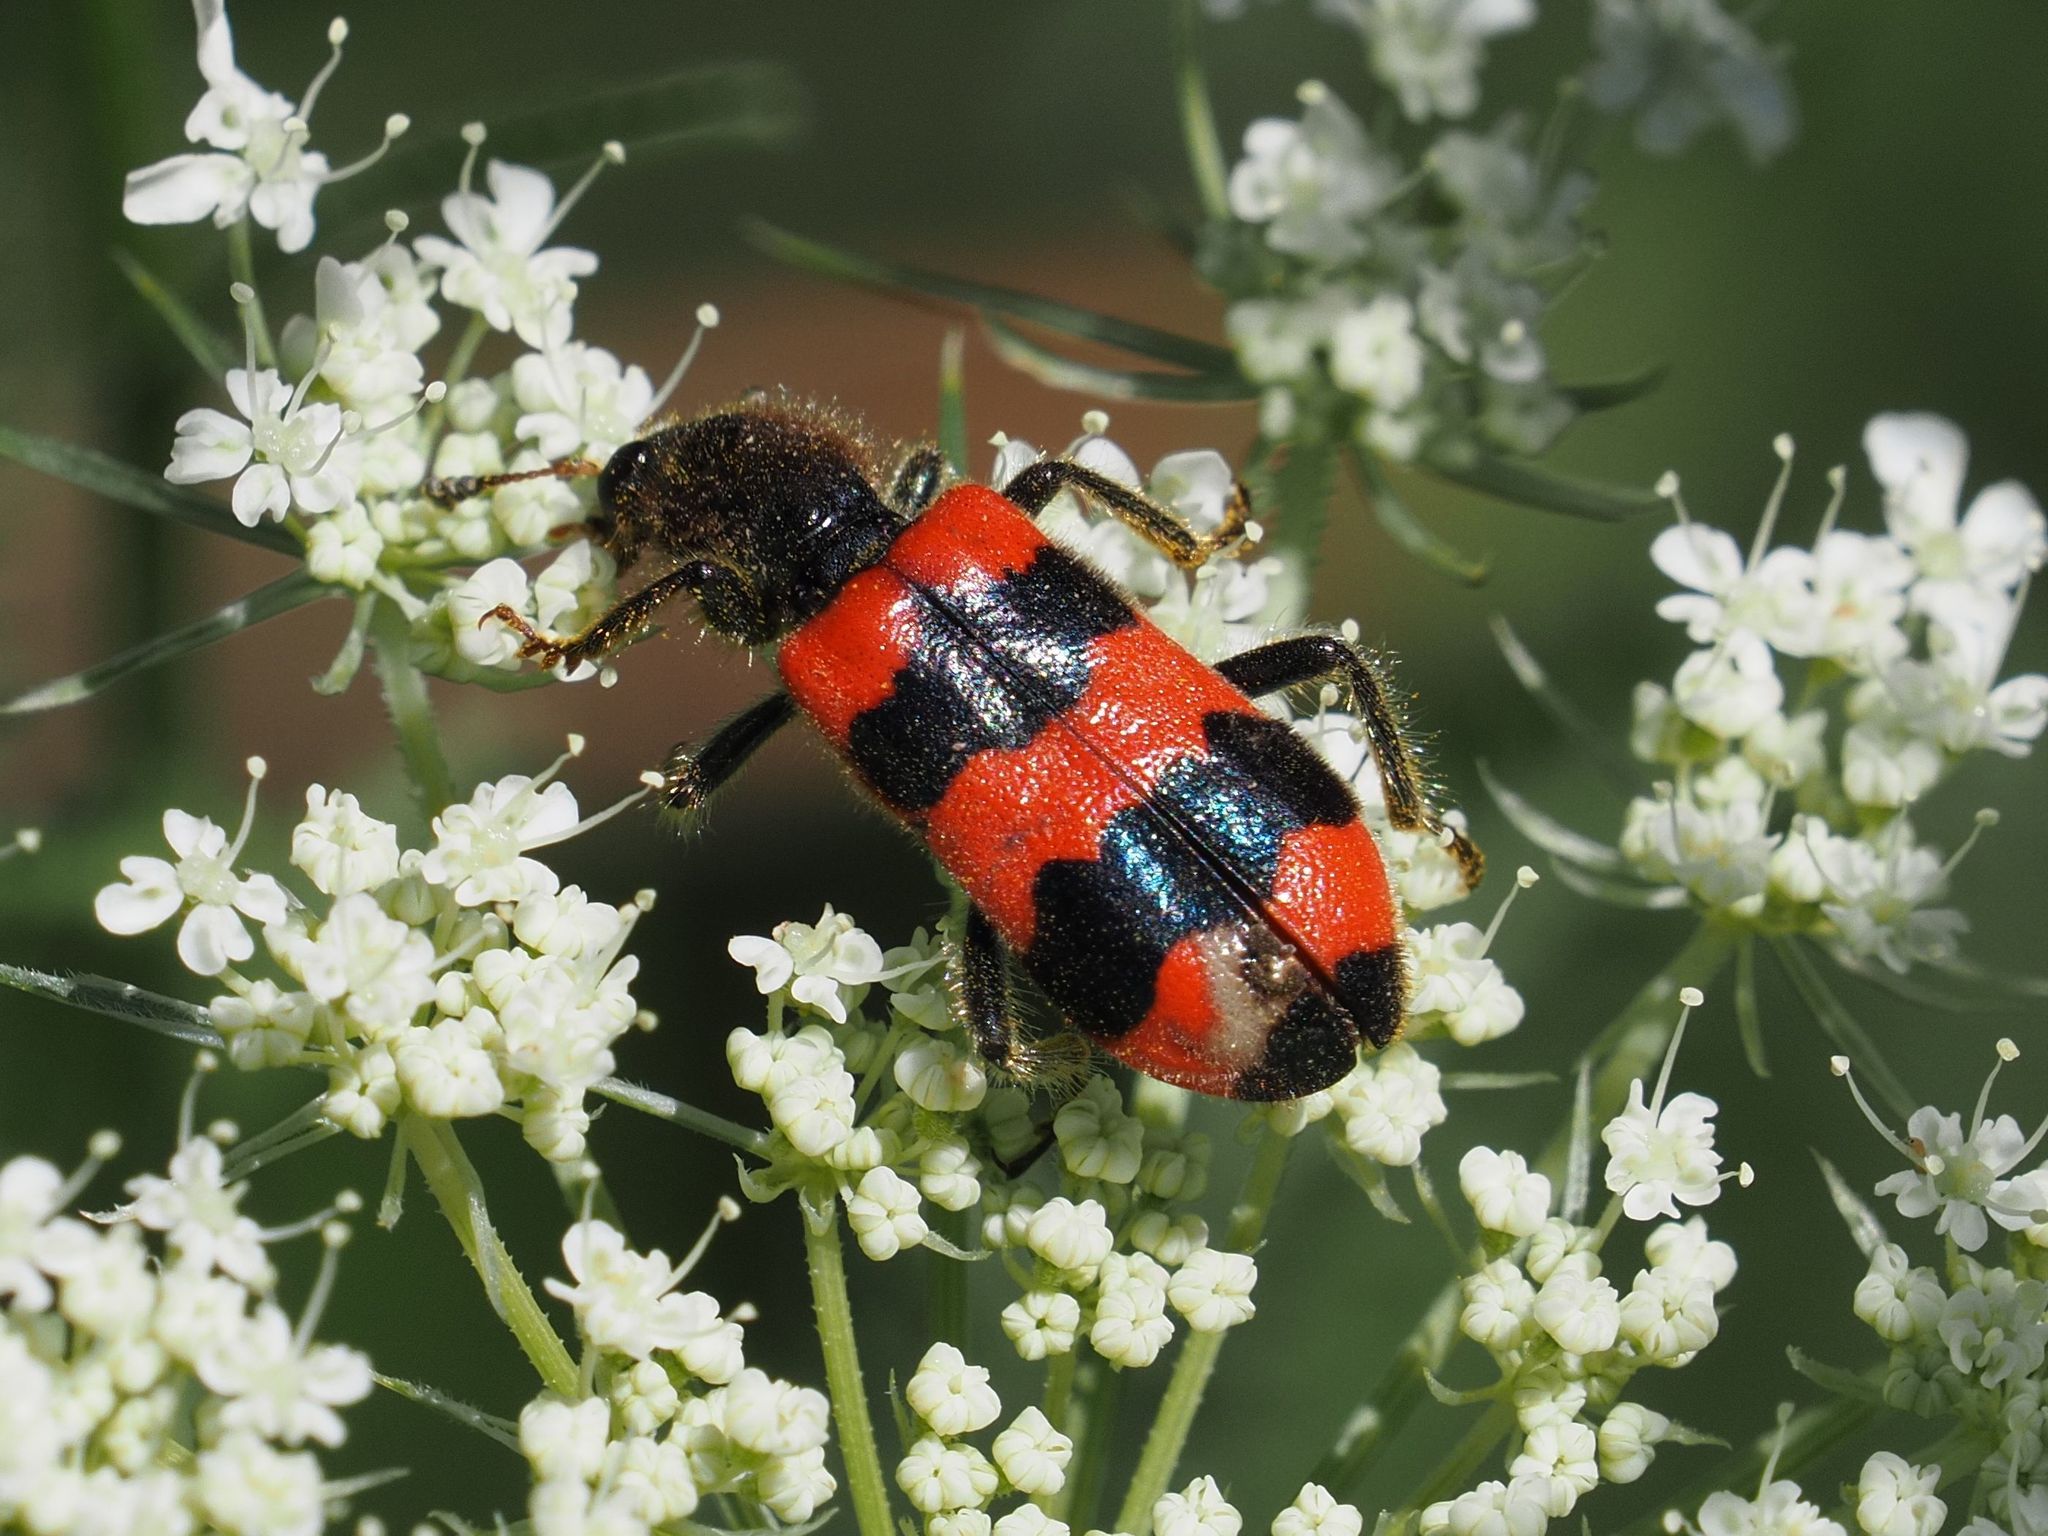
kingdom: Animalia
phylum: Arthropoda
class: Insecta
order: Coleoptera
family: Cleridae
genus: Trichodes
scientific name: Trichodes apiarius
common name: Bee-eating beetle
